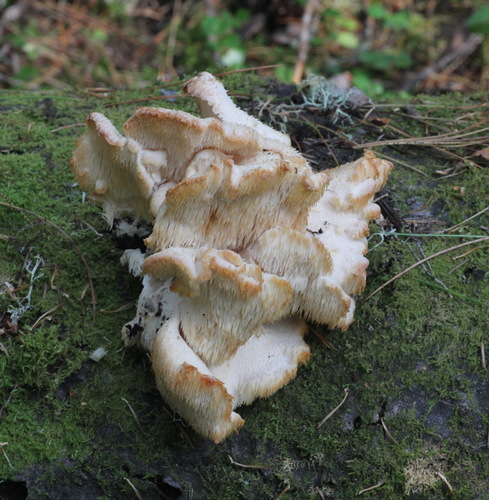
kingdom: Fungi
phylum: Basidiomycota
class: Agaricomycetes
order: Russulales
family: Hericiaceae
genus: Hericium
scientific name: Hericium cirrhatum
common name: Tiered tooth
